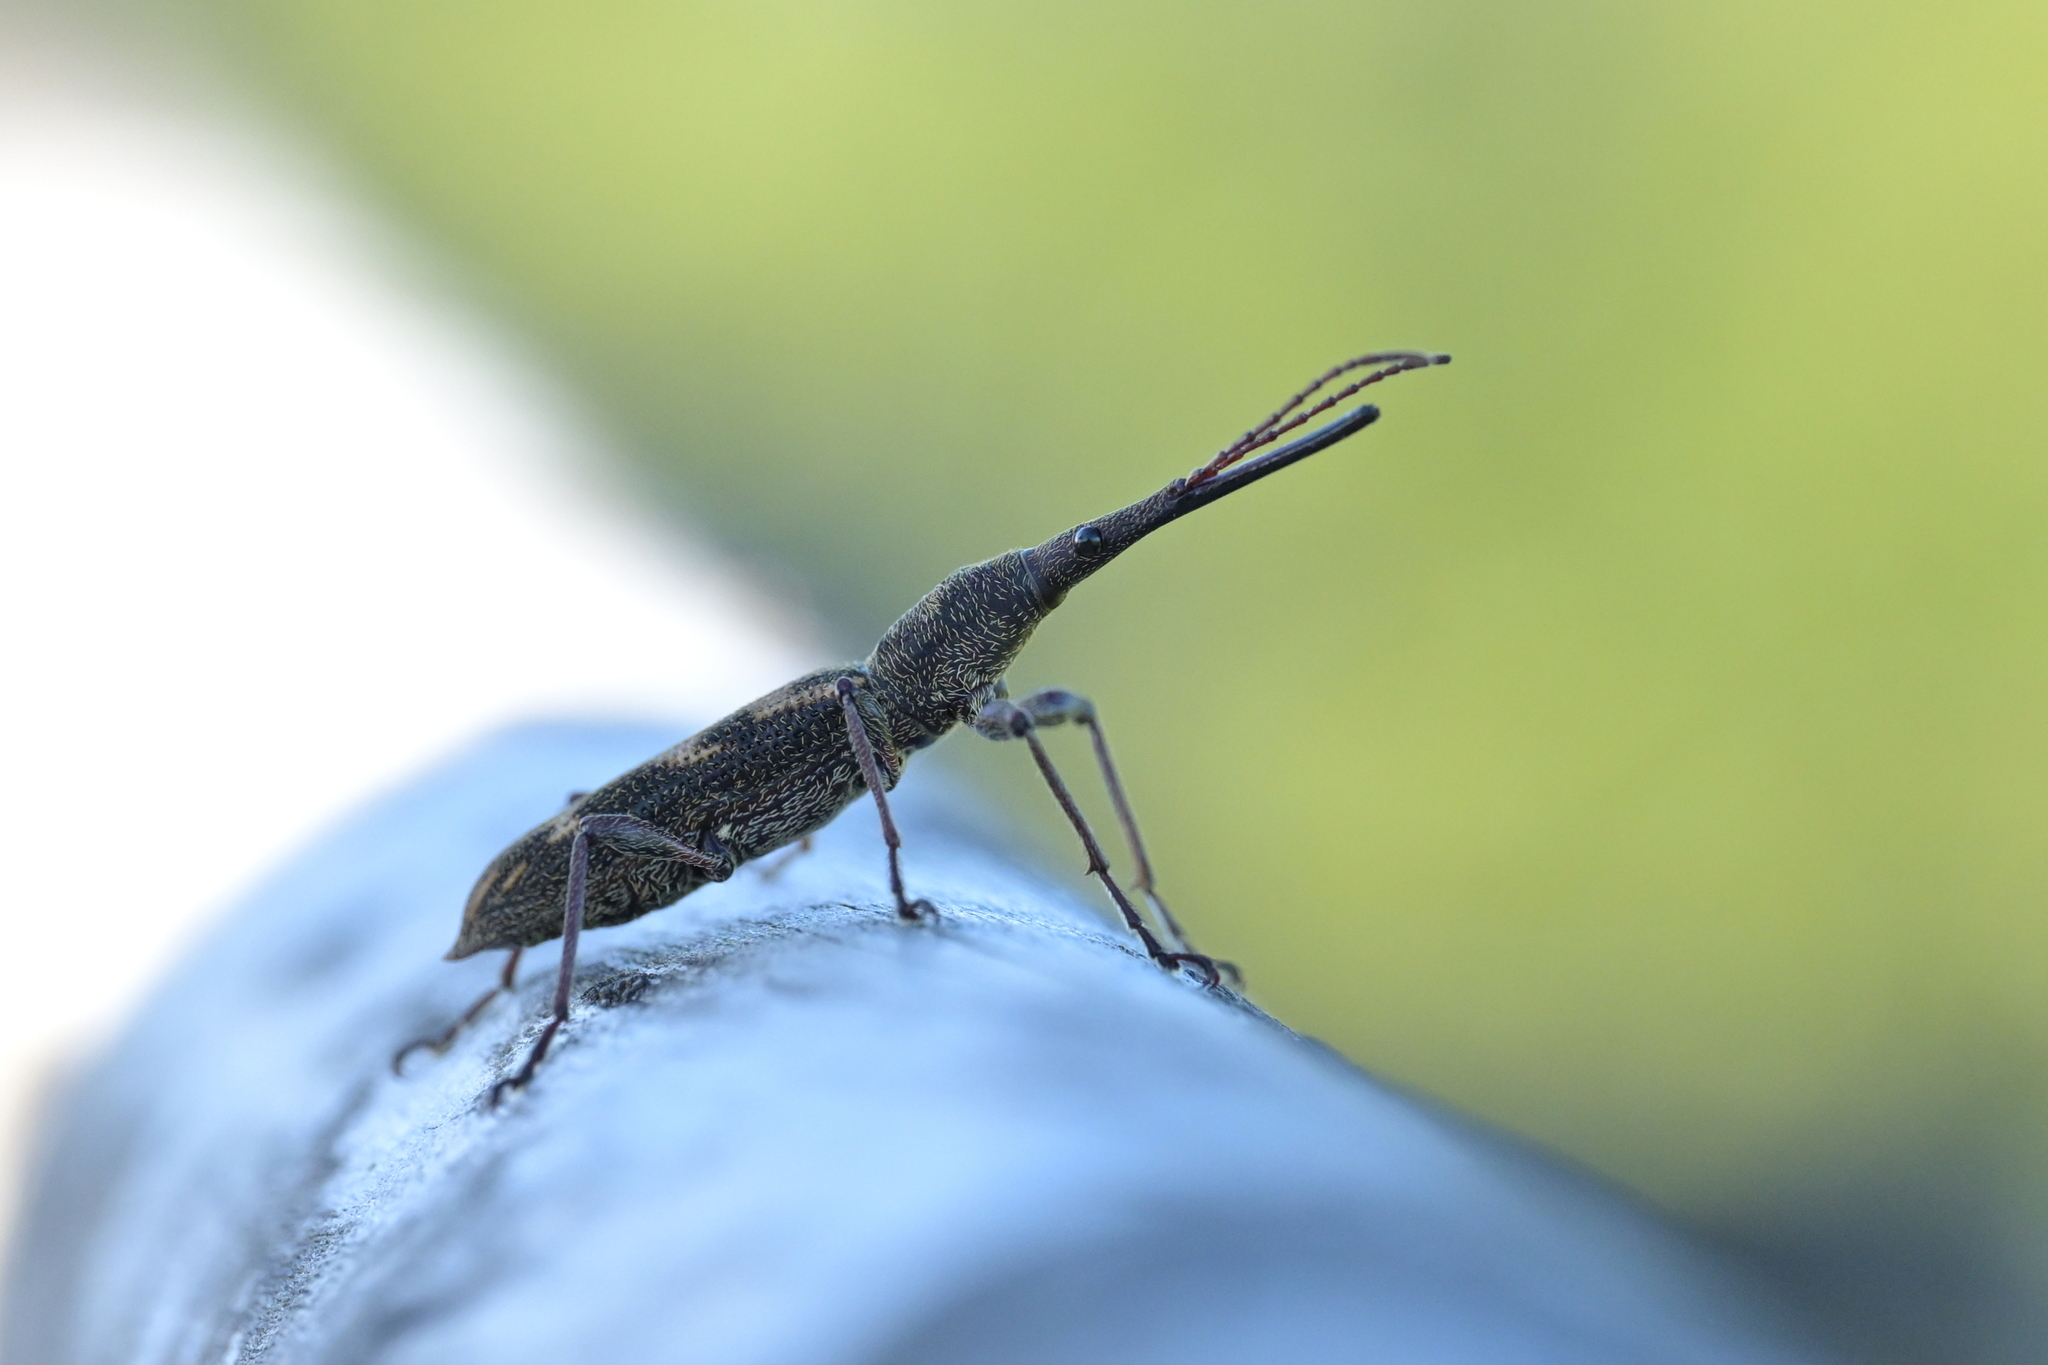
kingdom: Animalia
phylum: Arthropoda
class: Insecta
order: Coleoptera
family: Brentidae
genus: Lasiorhynchus
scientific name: Lasiorhynchus barbicornis
